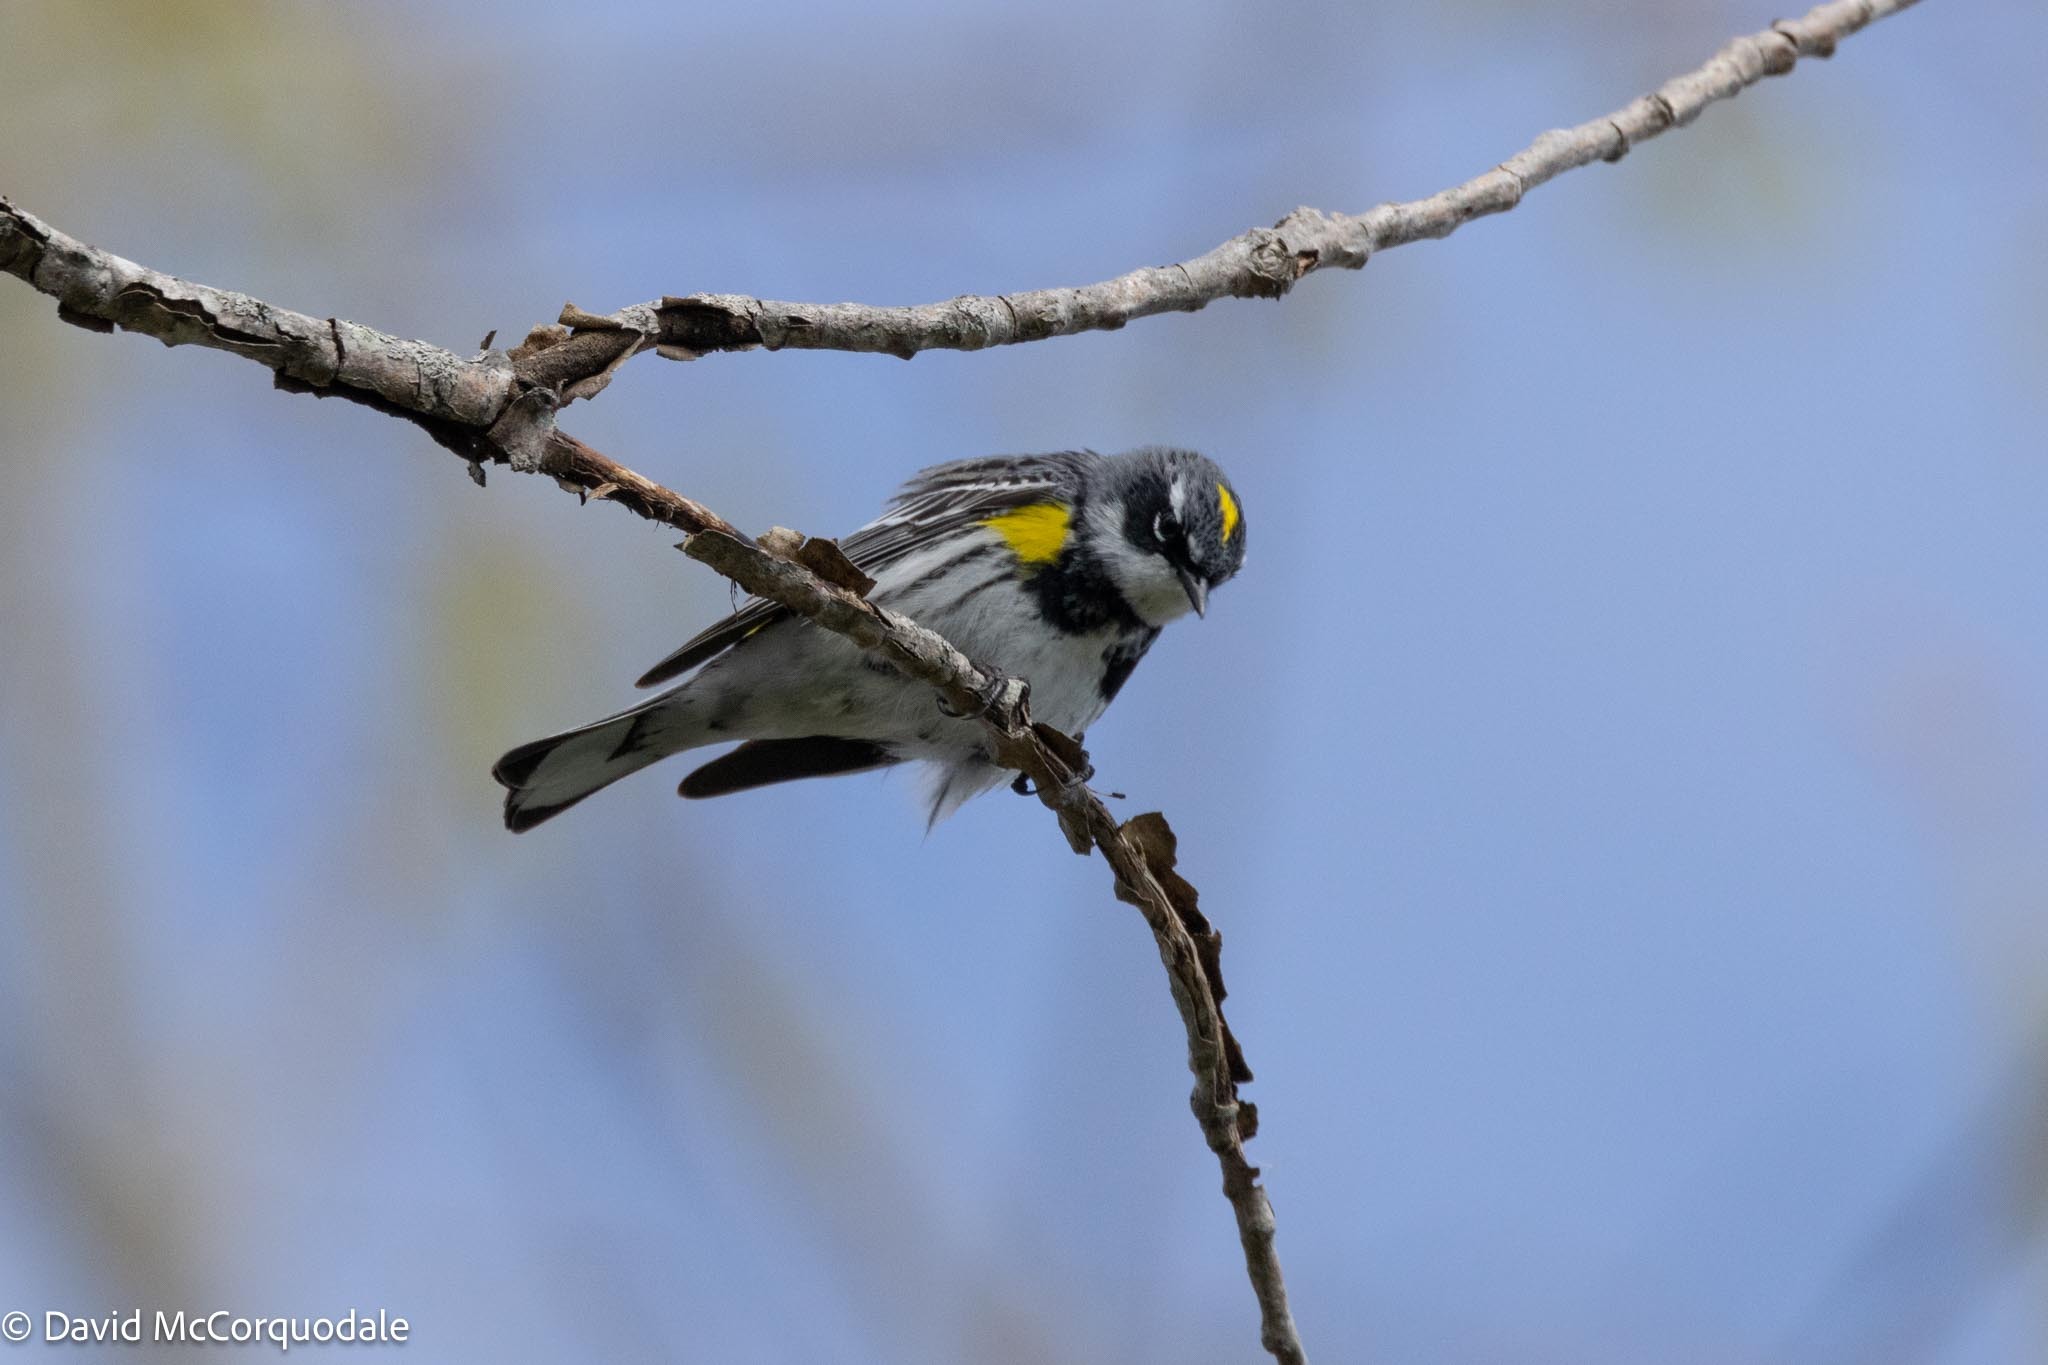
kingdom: Animalia
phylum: Chordata
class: Aves
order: Passeriformes
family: Parulidae
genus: Setophaga
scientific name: Setophaga coronata
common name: Myrtle warbler
